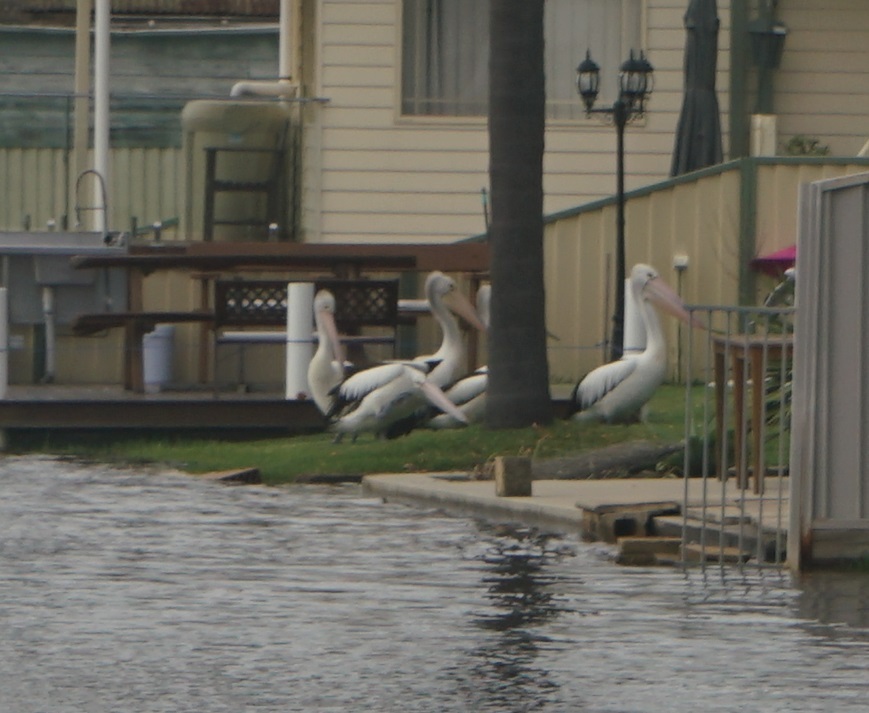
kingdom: Animalia
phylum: Chordata
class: Aves
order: Pelecaniformes
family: Pelecanidae
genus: Pelecanus
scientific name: Pelecanus conspicillatus
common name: Australian pelican
